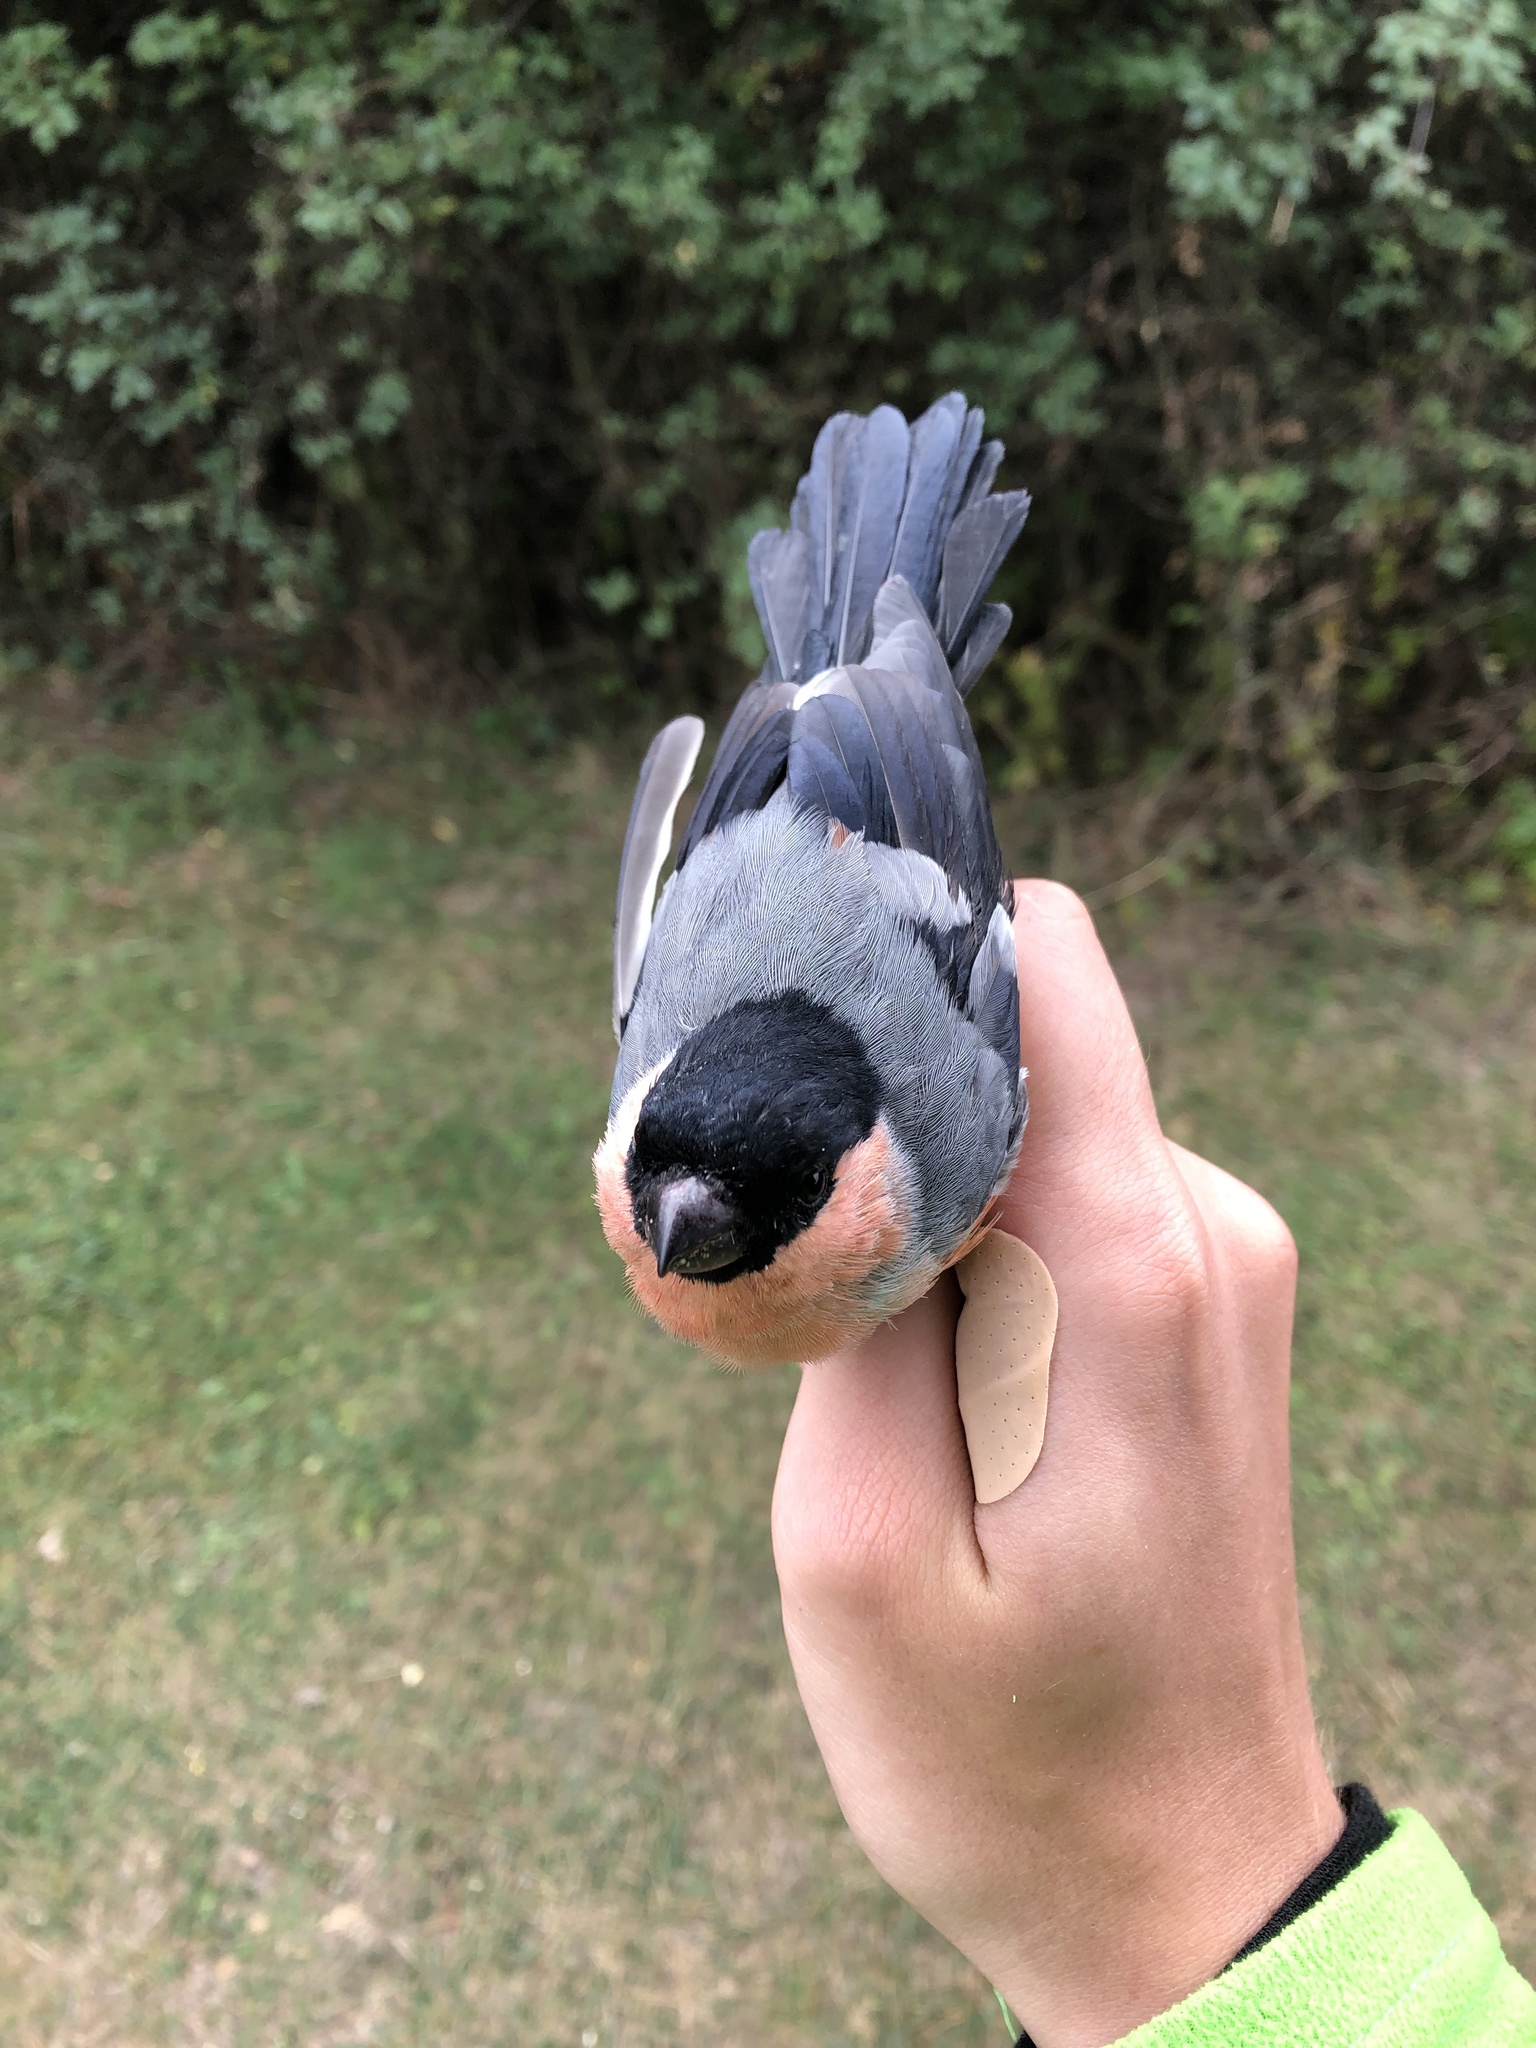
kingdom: Animalia
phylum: Chordata
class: Aves
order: Passeriformes
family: Fringillidae
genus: Pyrrhula
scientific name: Pyrrhula pyrrhula
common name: Eurasian bullfinch
